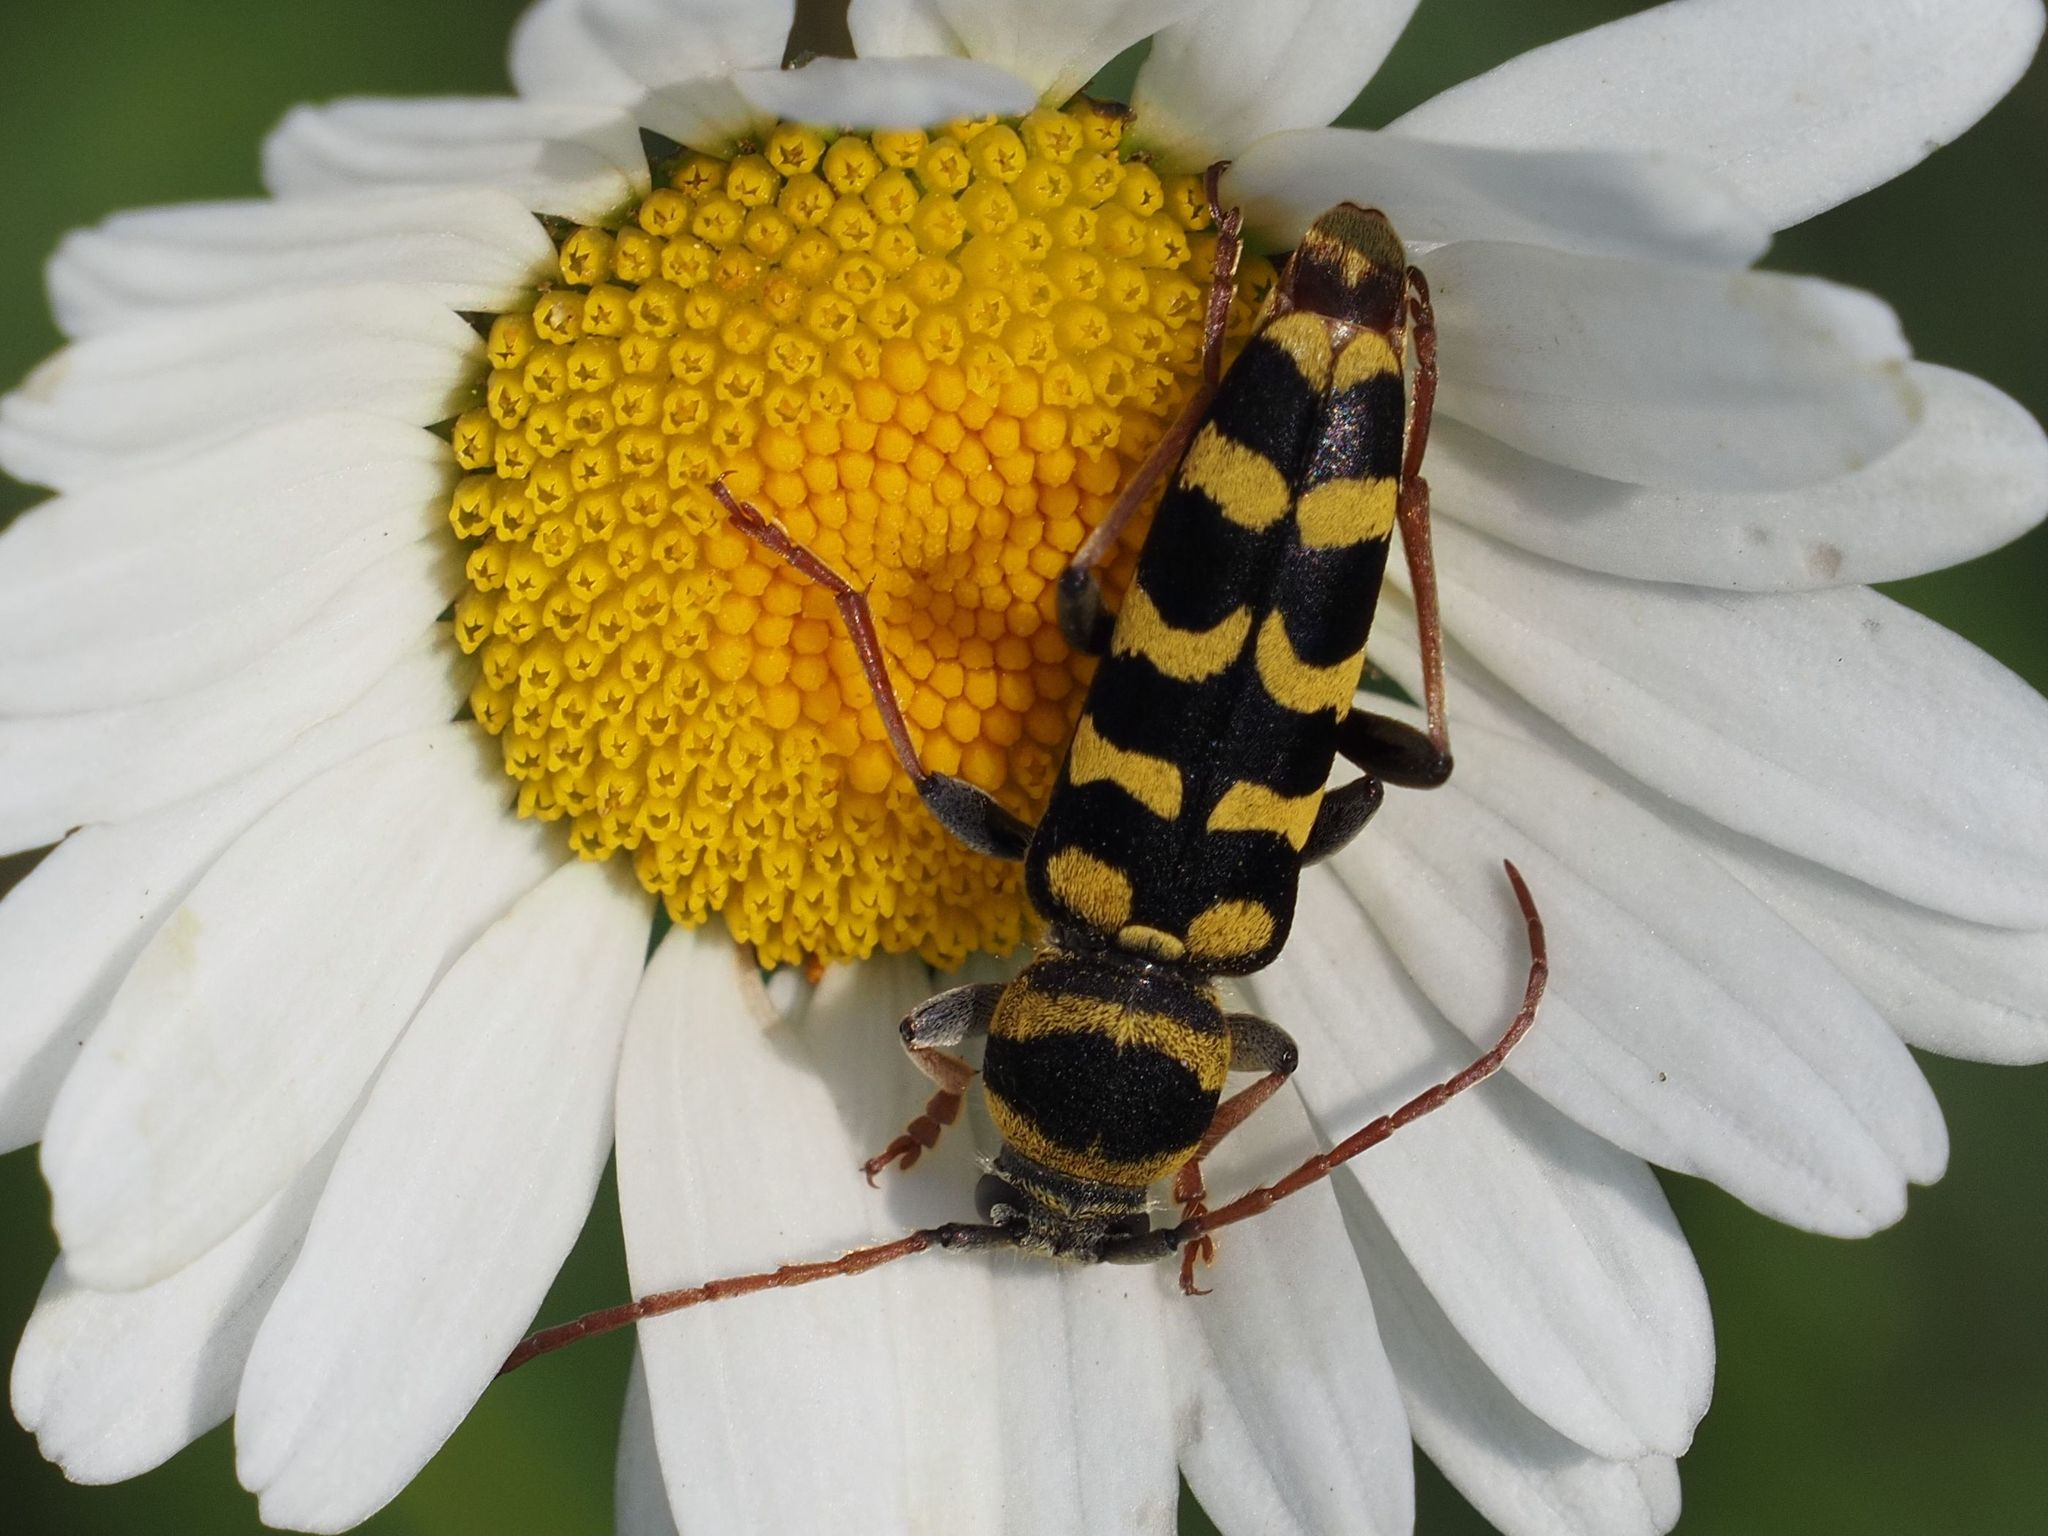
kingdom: Animalia
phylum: Arthropoda
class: Insecta
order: Coleoptera
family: Cerambycidae
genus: Plagionotus
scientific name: Plagionotus floralis
